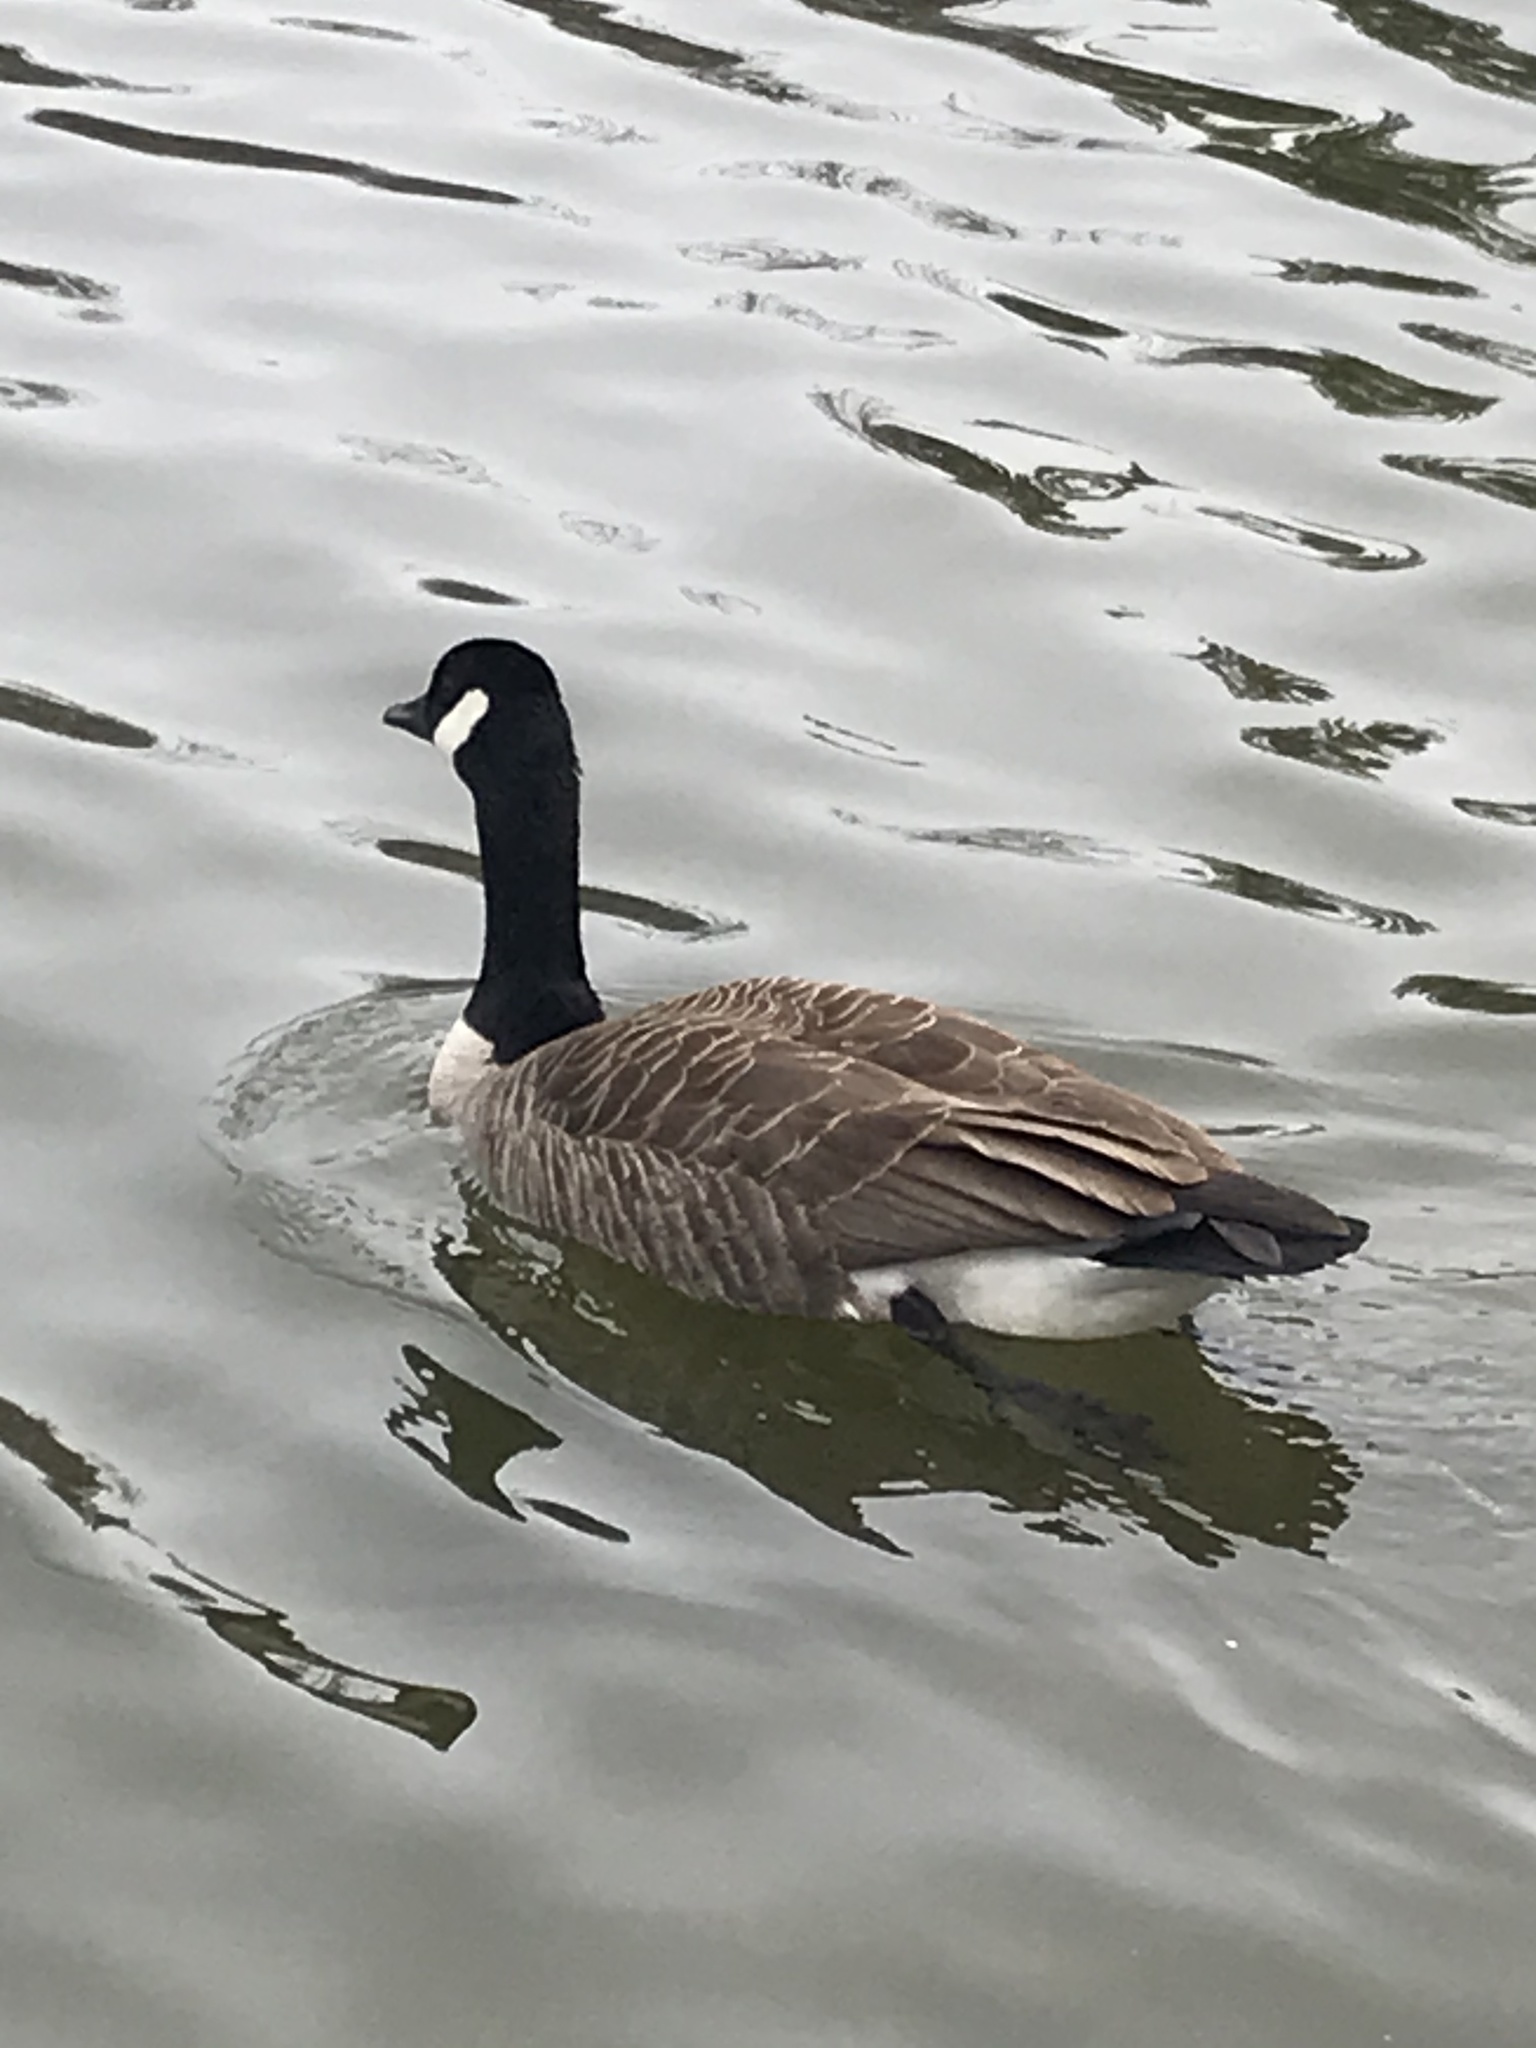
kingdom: Animalia
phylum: Chordata
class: Aves
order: Anseriformes
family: Anatidae
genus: Branta
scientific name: Branta canadensis
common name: Canada goose
